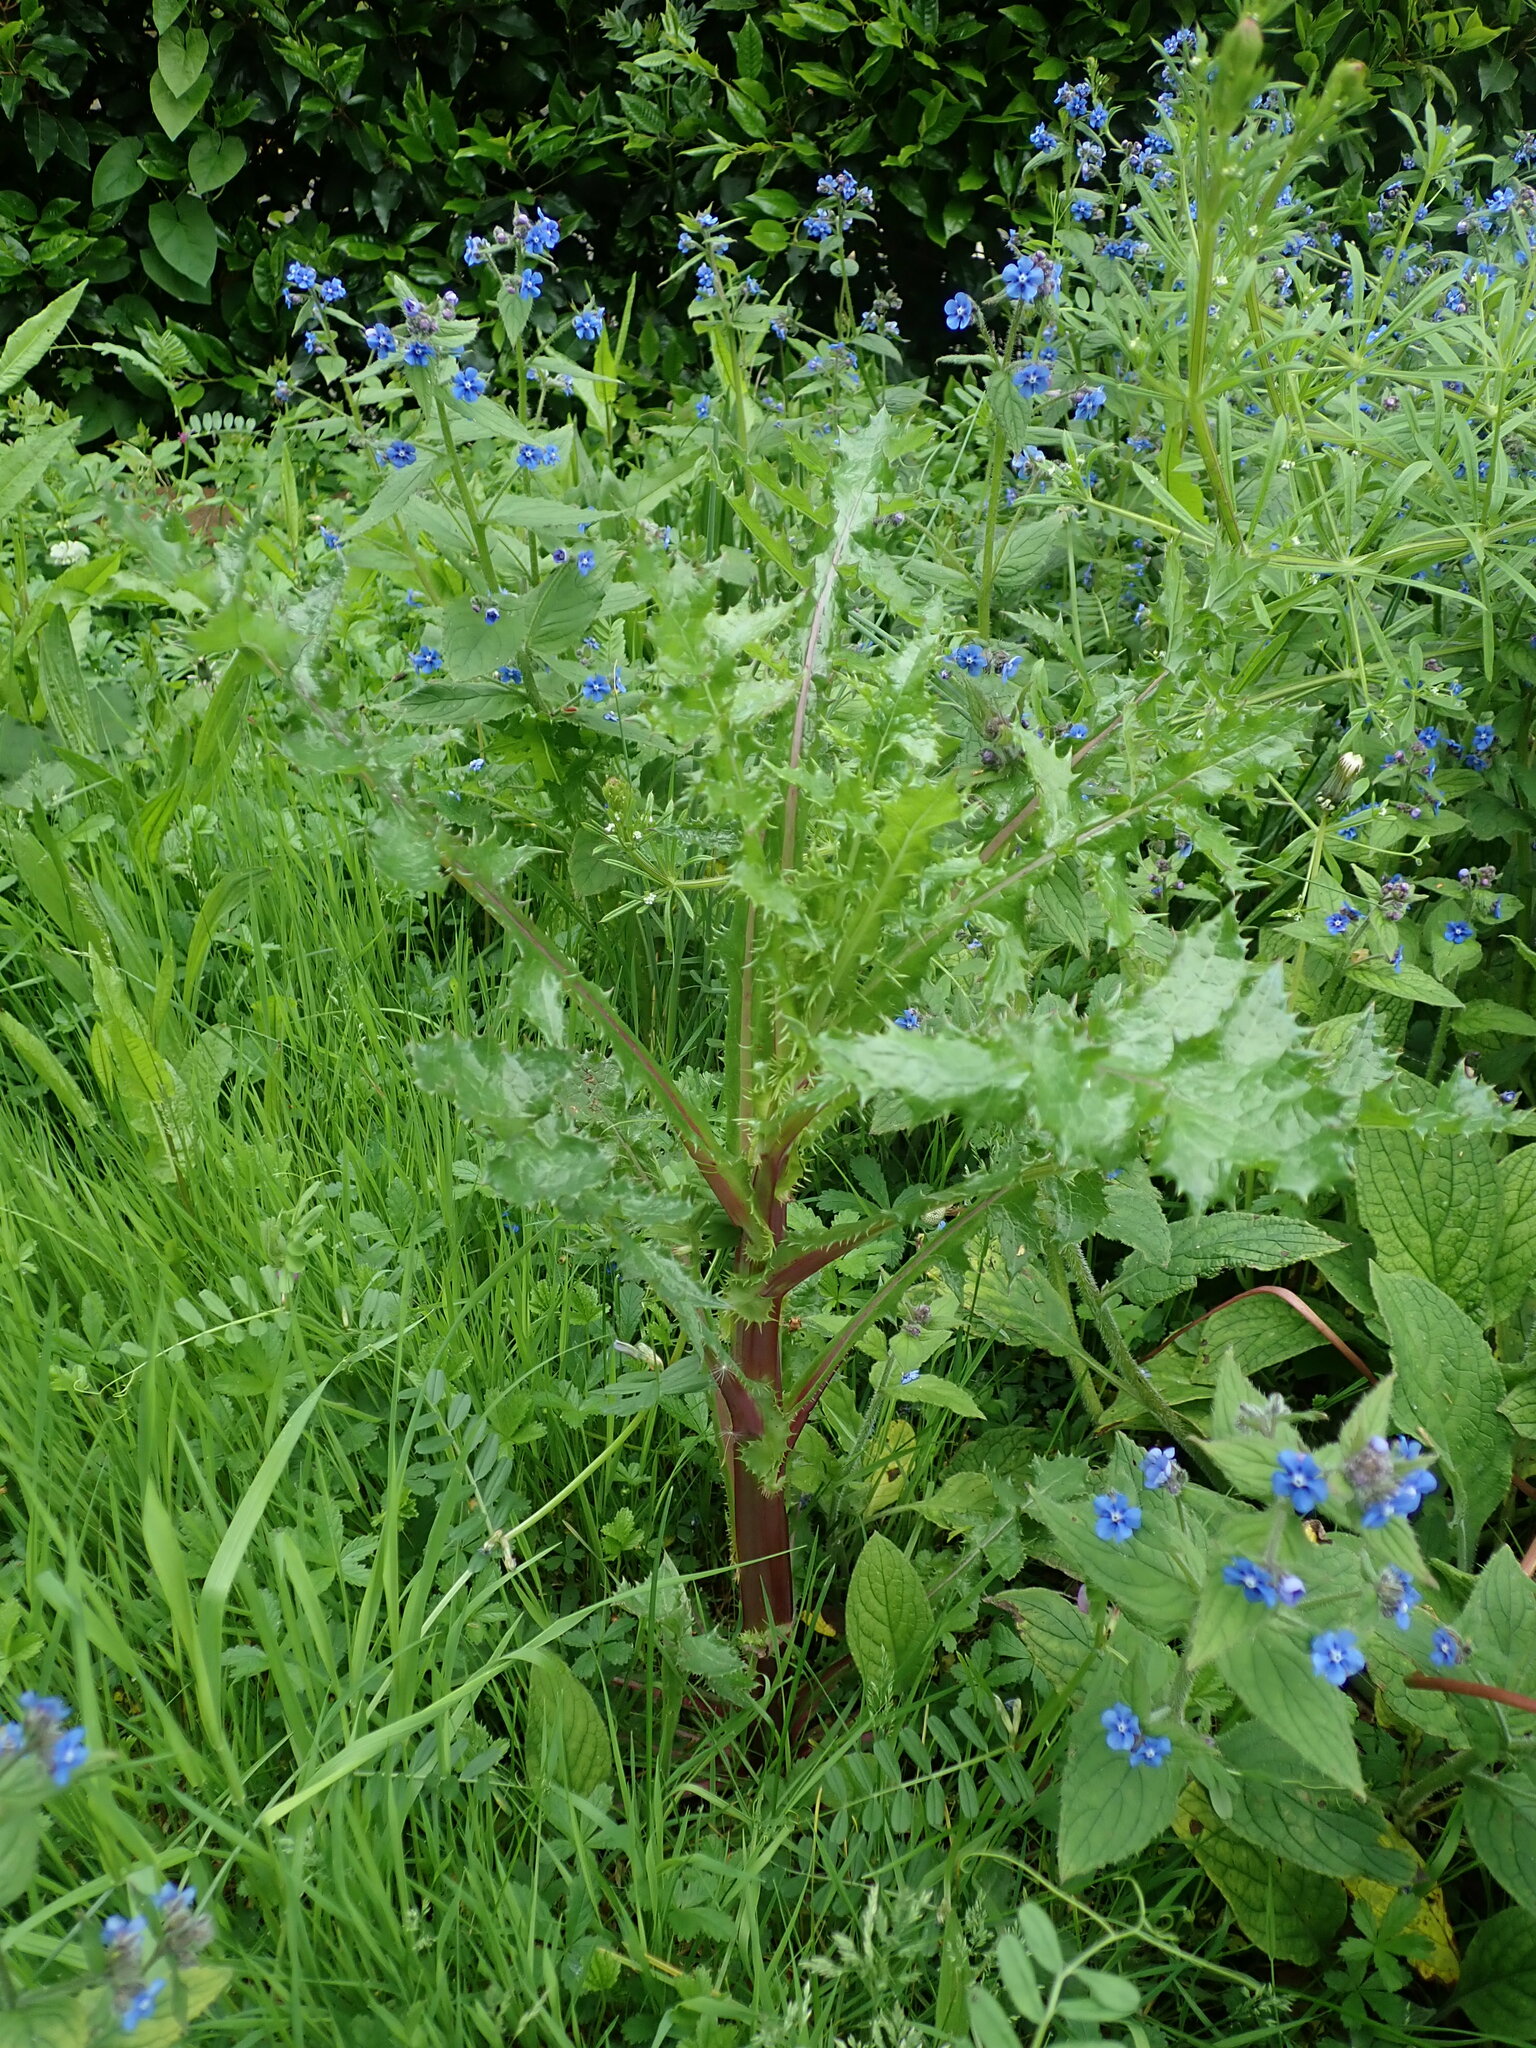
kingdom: Plantae
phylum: Tracheophyta
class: Magnoliopsida
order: Asterales
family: Asteraceae
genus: Sonchus
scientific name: Sonchus asper
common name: Prickly sow-thistle
